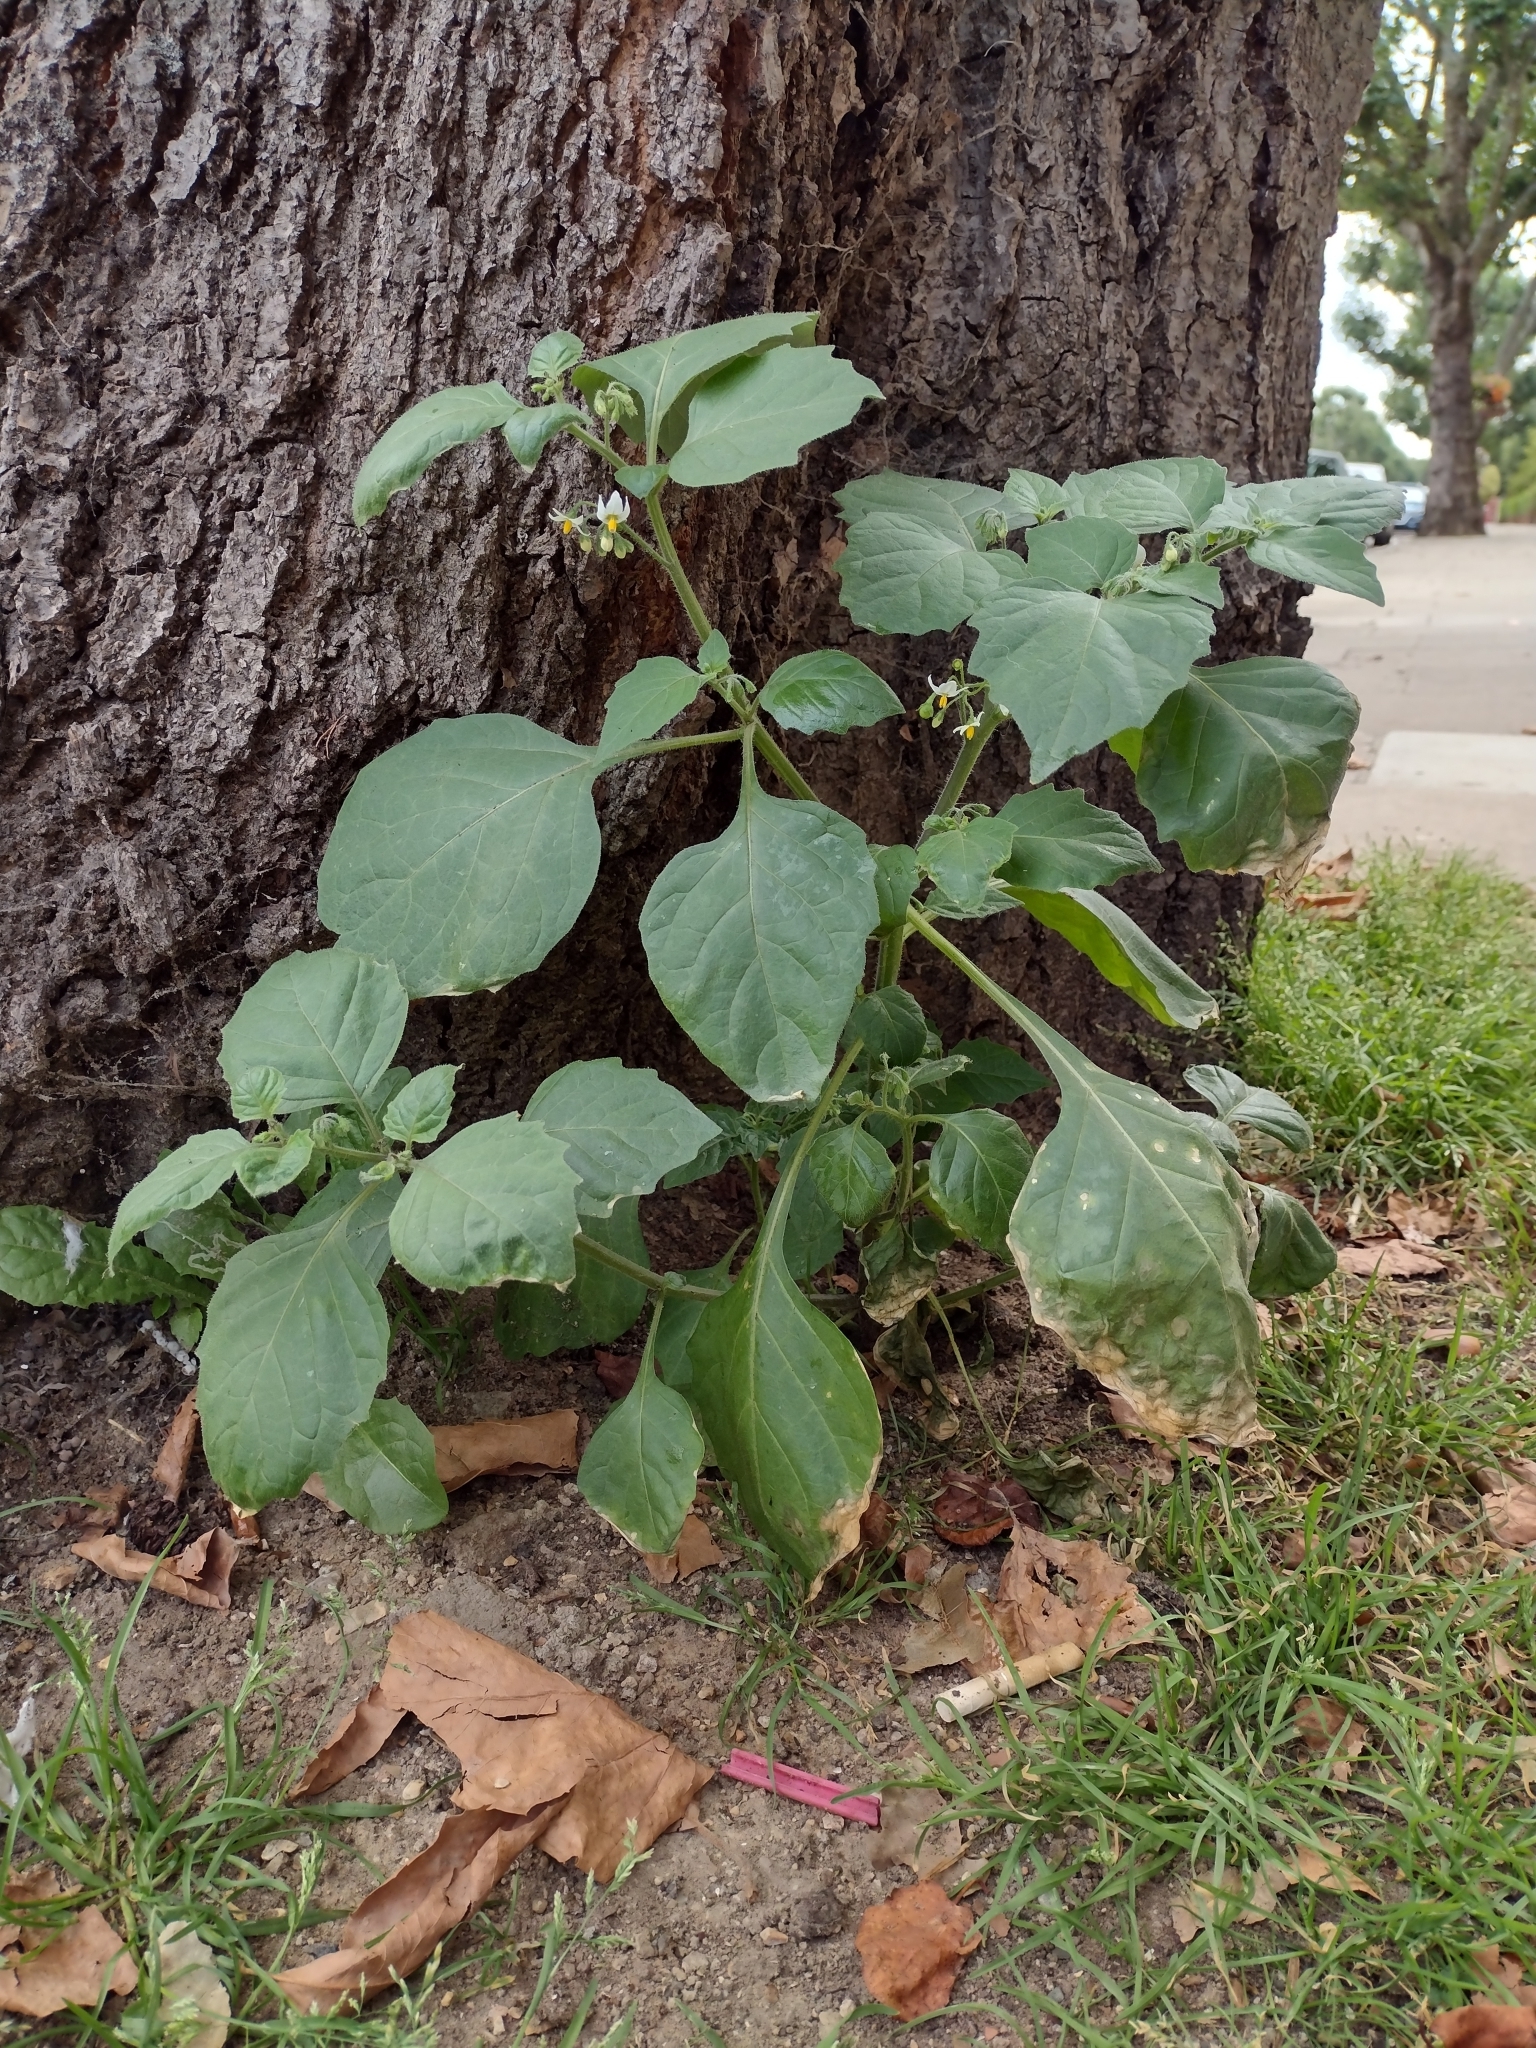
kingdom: Plantae
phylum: Tracheophyta
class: Magnoliopsida
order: Solanales
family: Solanaceae
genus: Solanum
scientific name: Solanum nigrum
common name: Black nightshade
